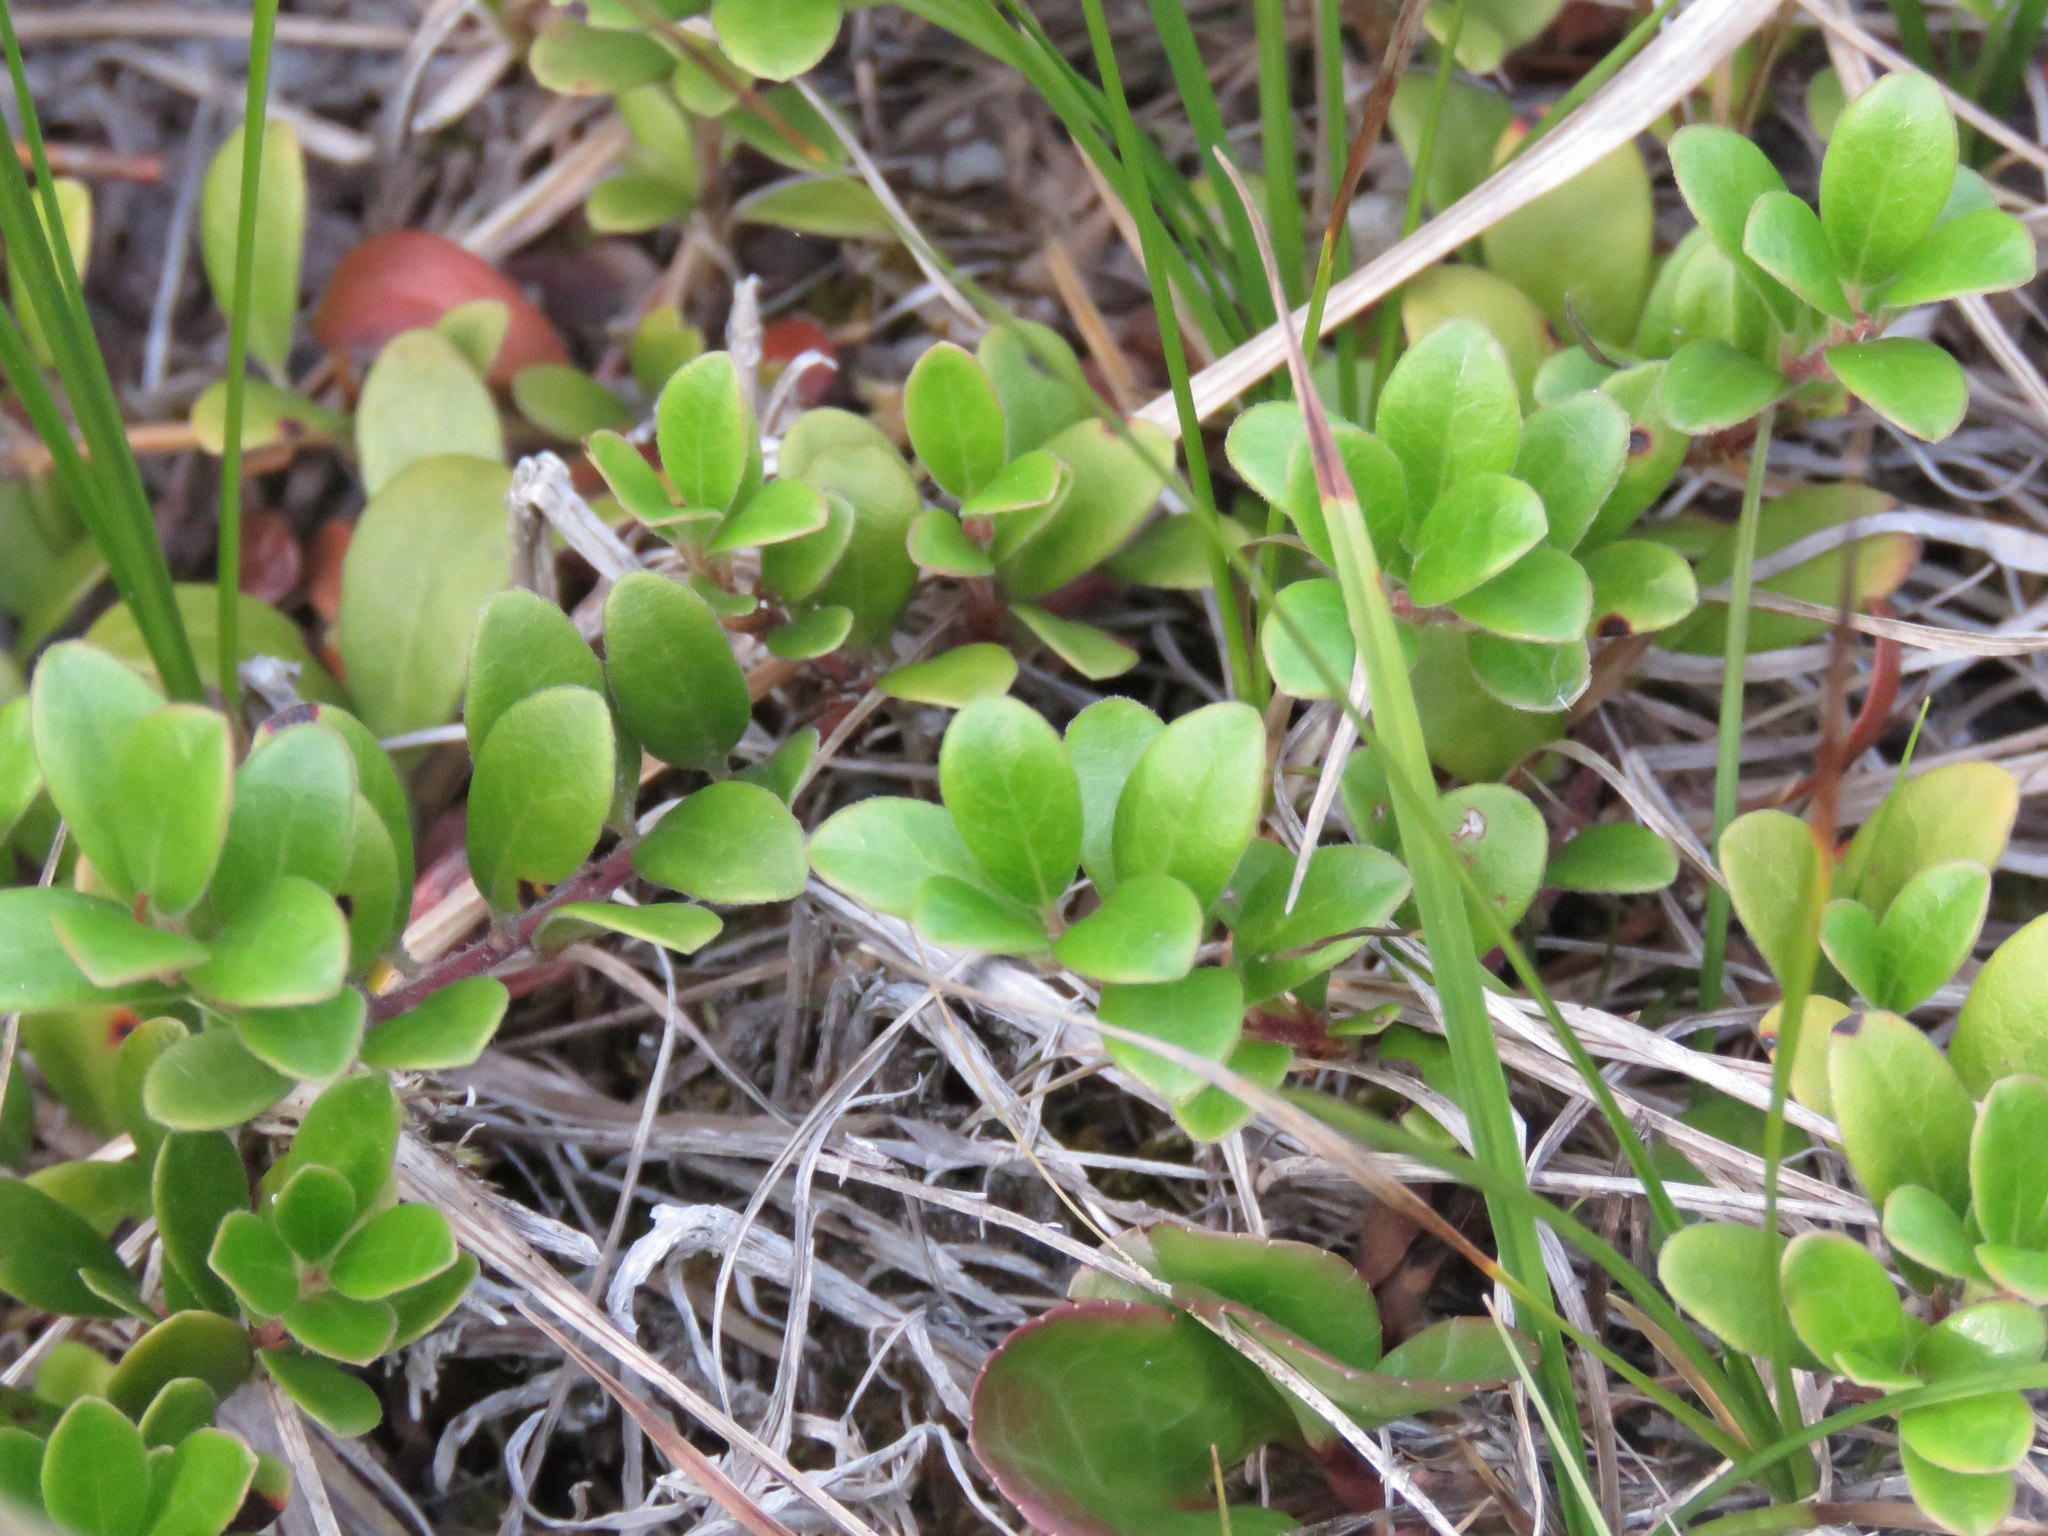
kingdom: Plantae
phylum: Tracheophyta
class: Magnoliopsida
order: Ericales
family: Ericaceae
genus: Arctostaphylos
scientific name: Arctostaphylos uva-ursi
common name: Bearberry
